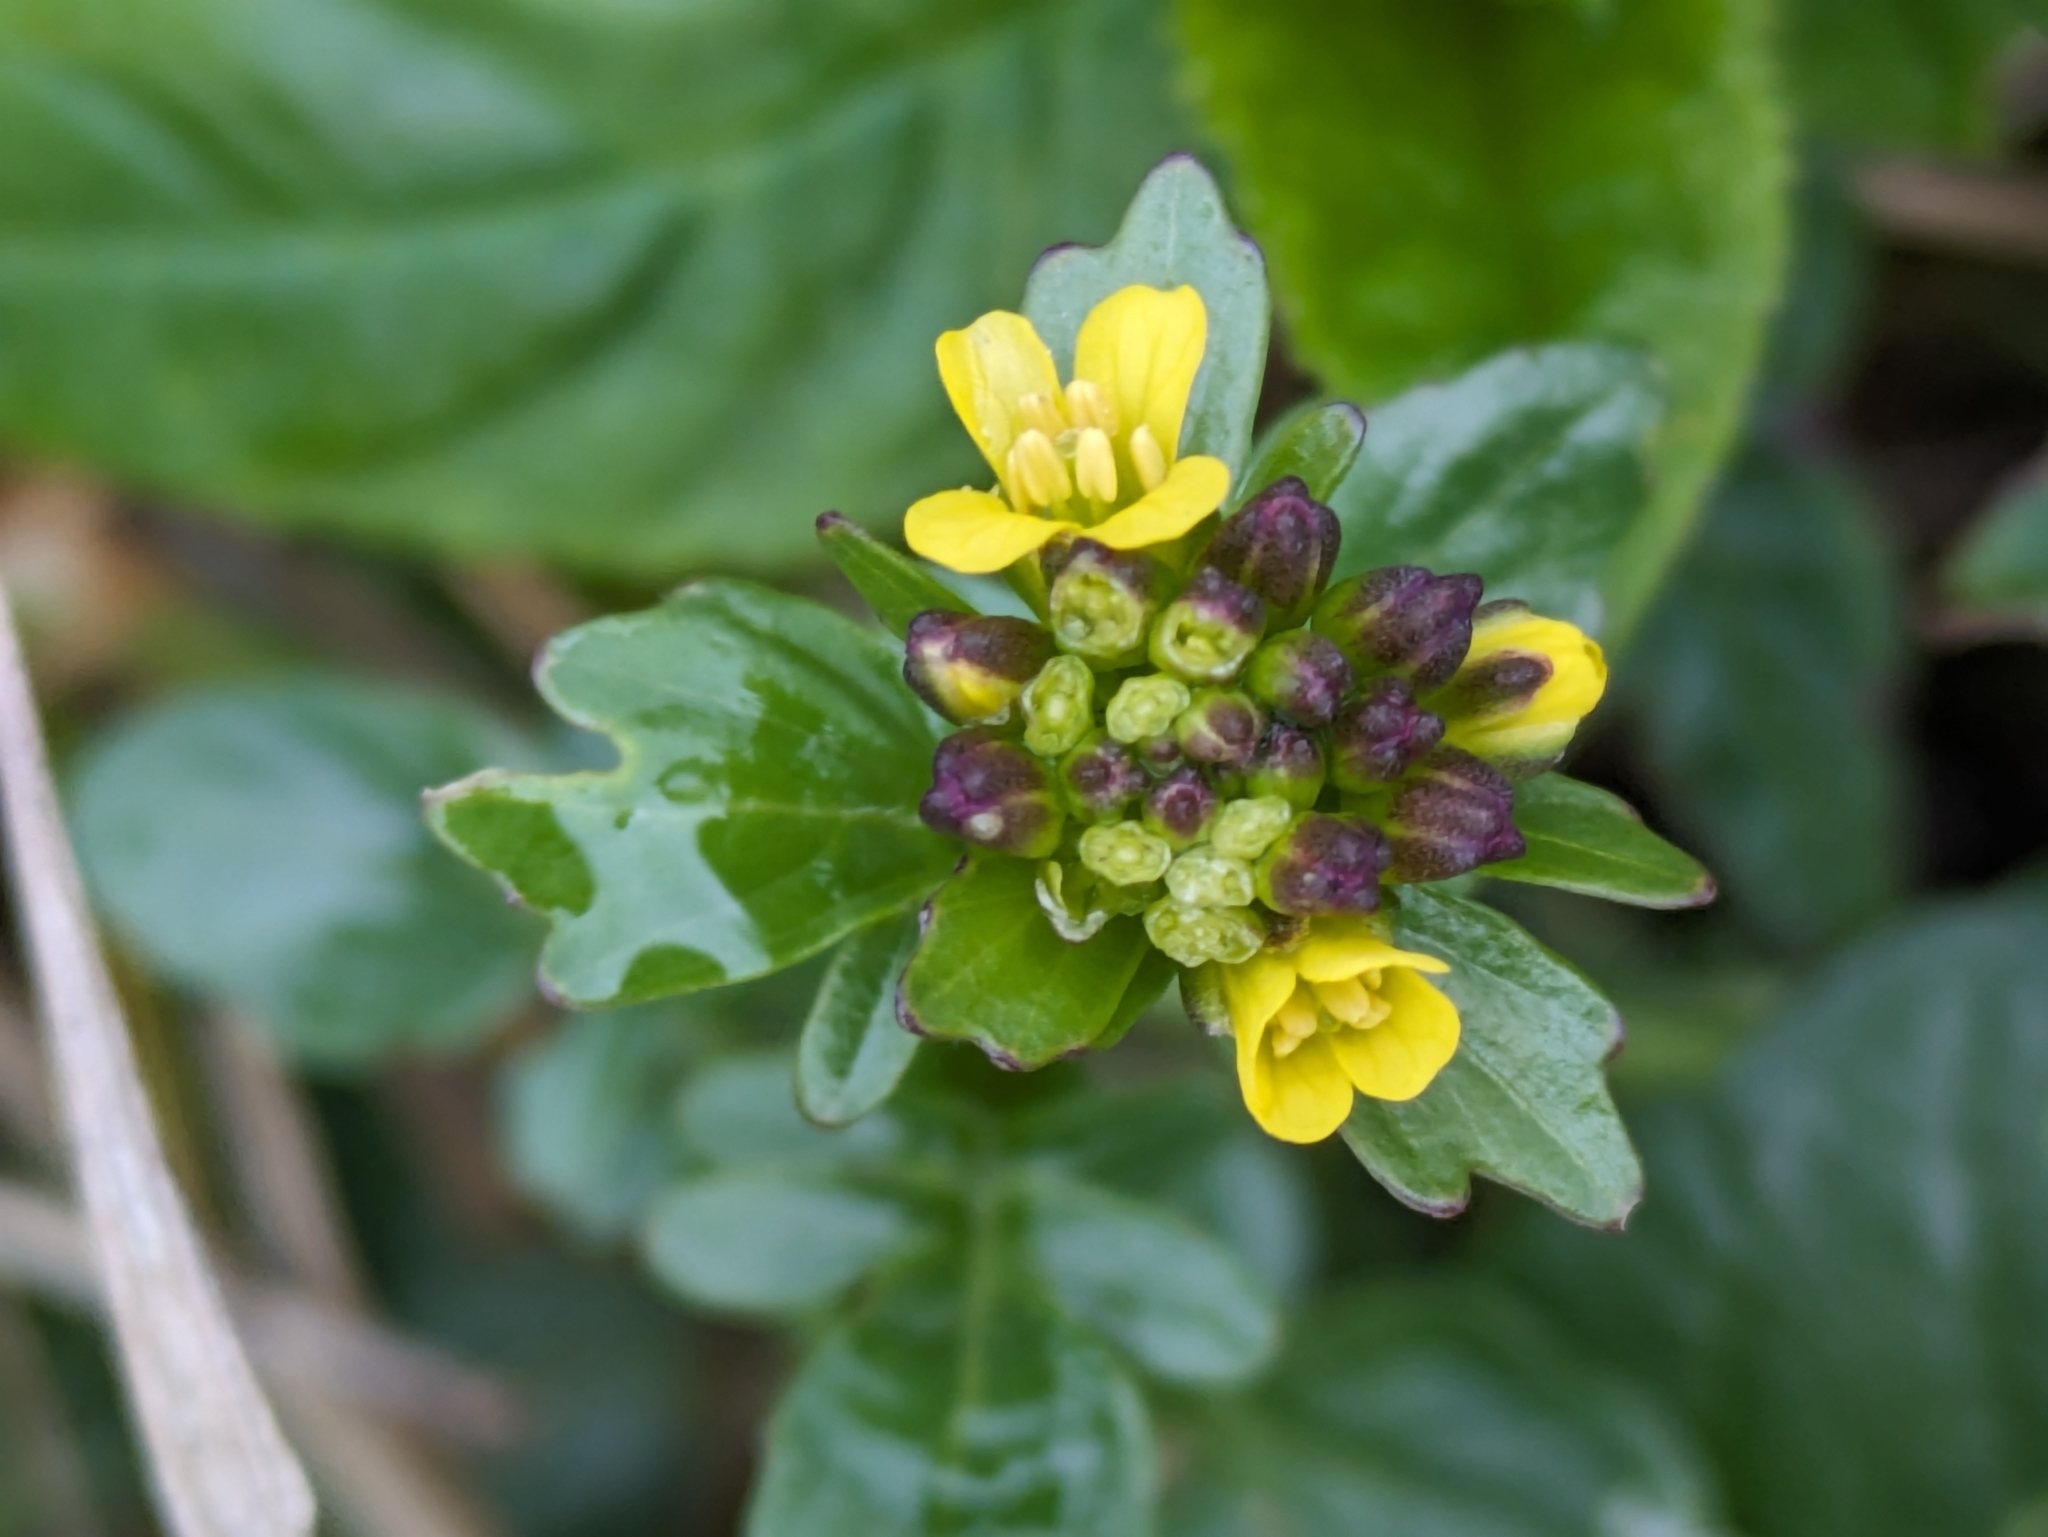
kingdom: Plantae
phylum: Tracheophyta
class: Magnoliopsida
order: Brassicales
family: Brassicaceae
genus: Barbarea
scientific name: Barbarea vulgaris
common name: Cressy-greens
